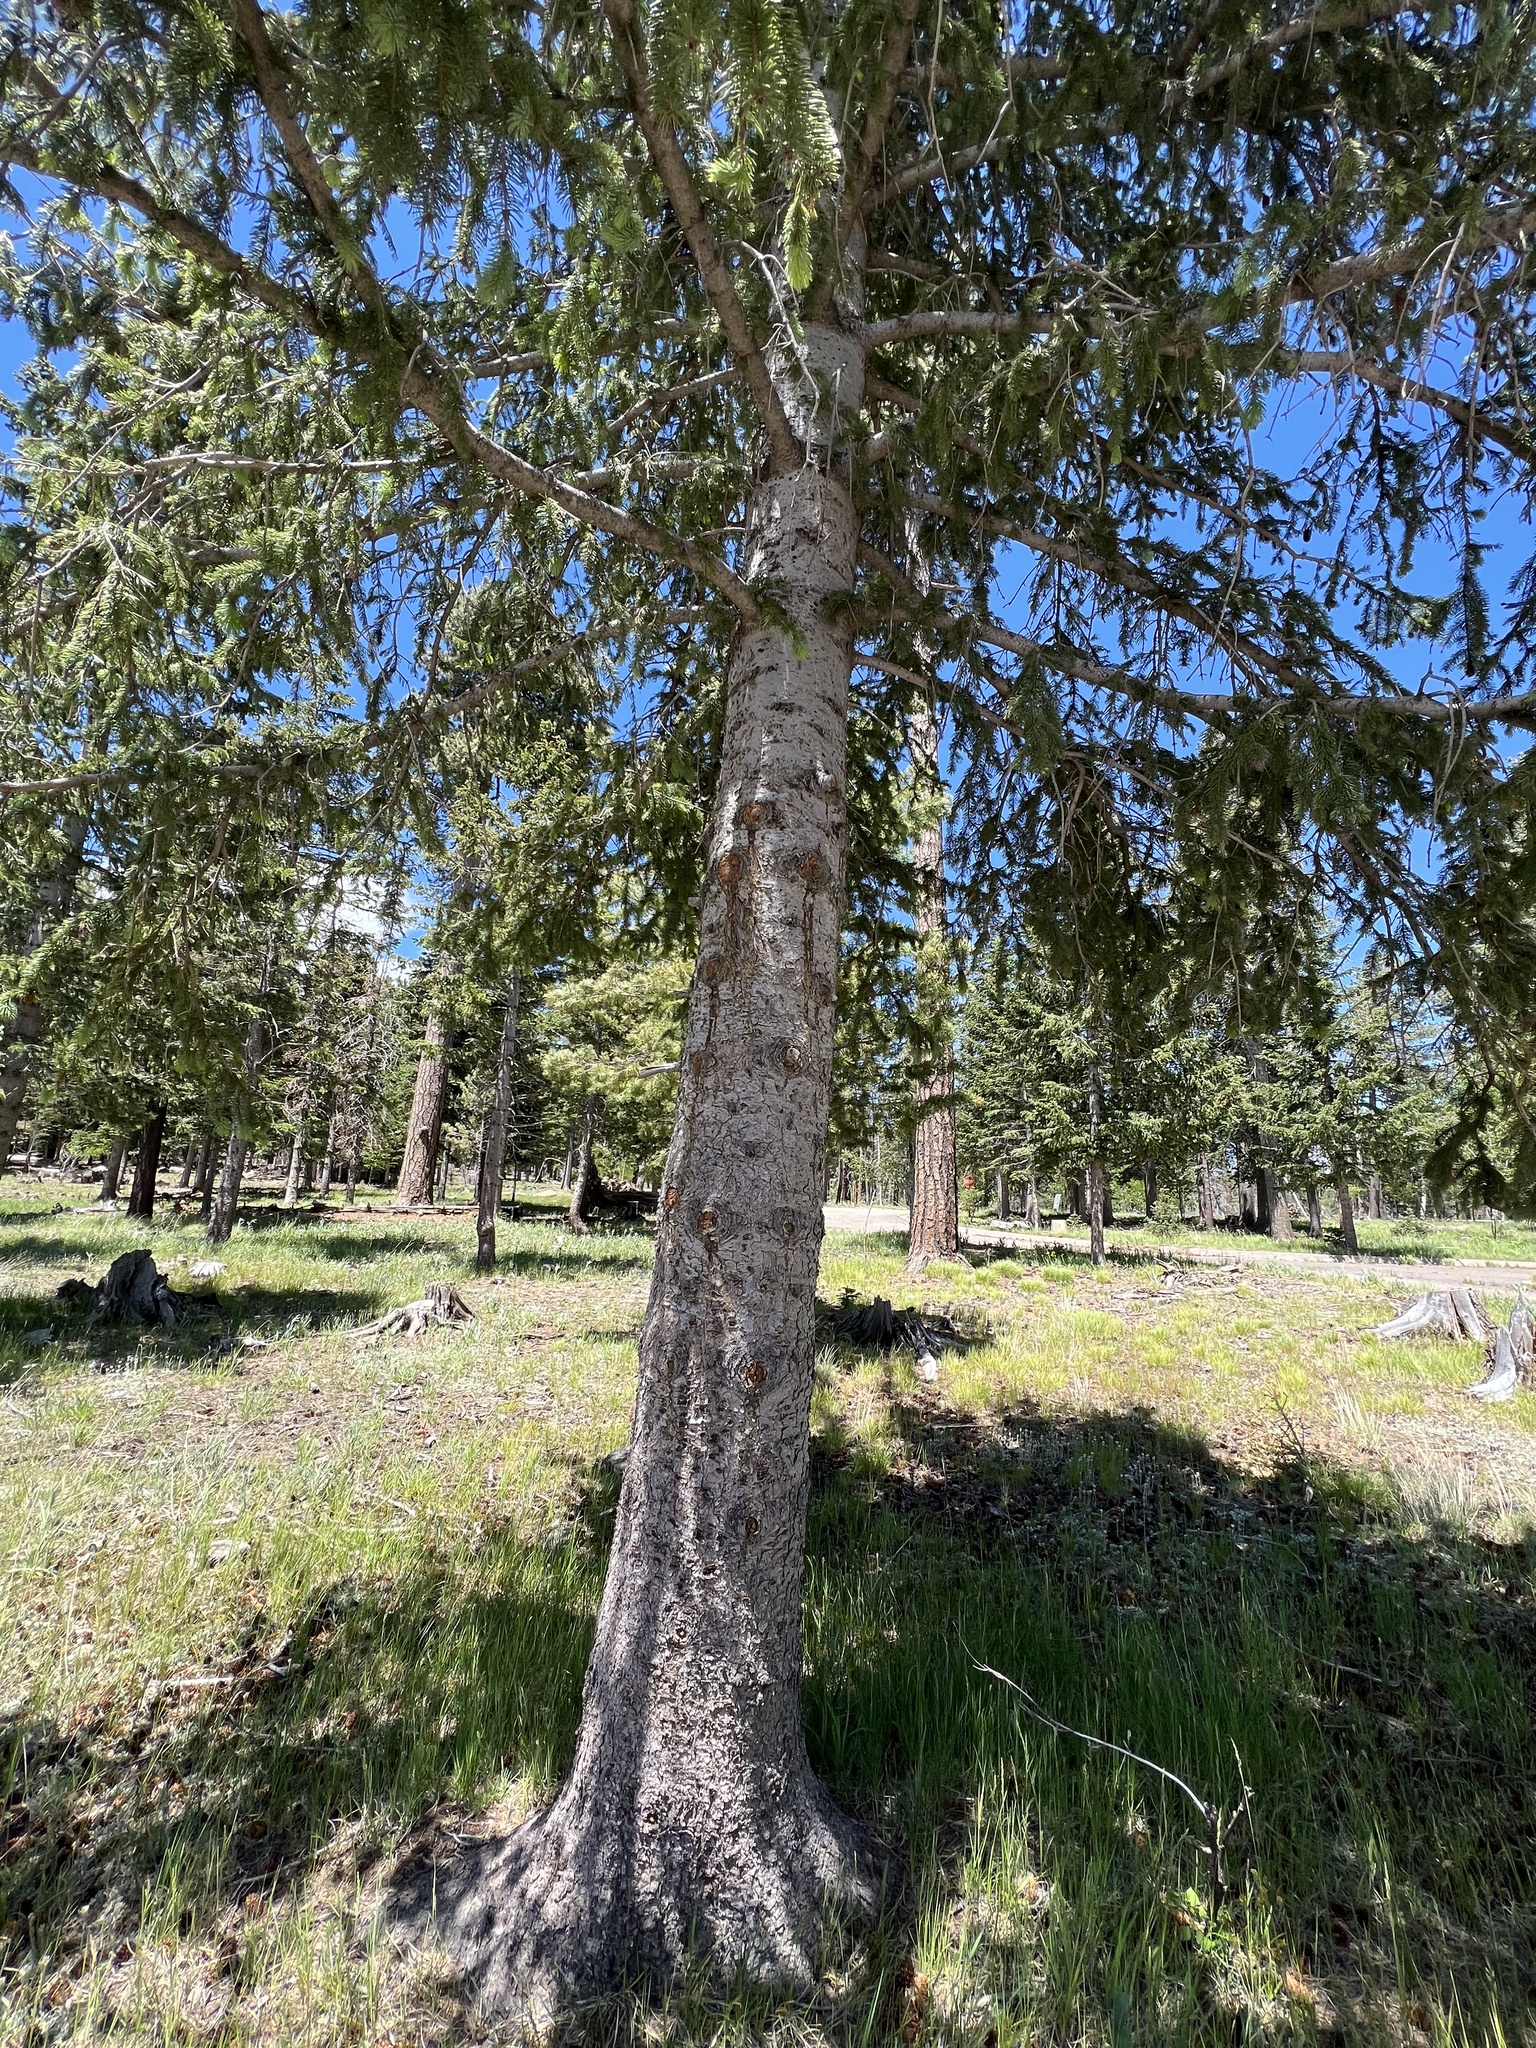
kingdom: Plantae
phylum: Tracheophyta
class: Pinopsida
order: Pinales
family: Pinaceae
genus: Picea
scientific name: Picea engelmannii
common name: Engelmann spruce
